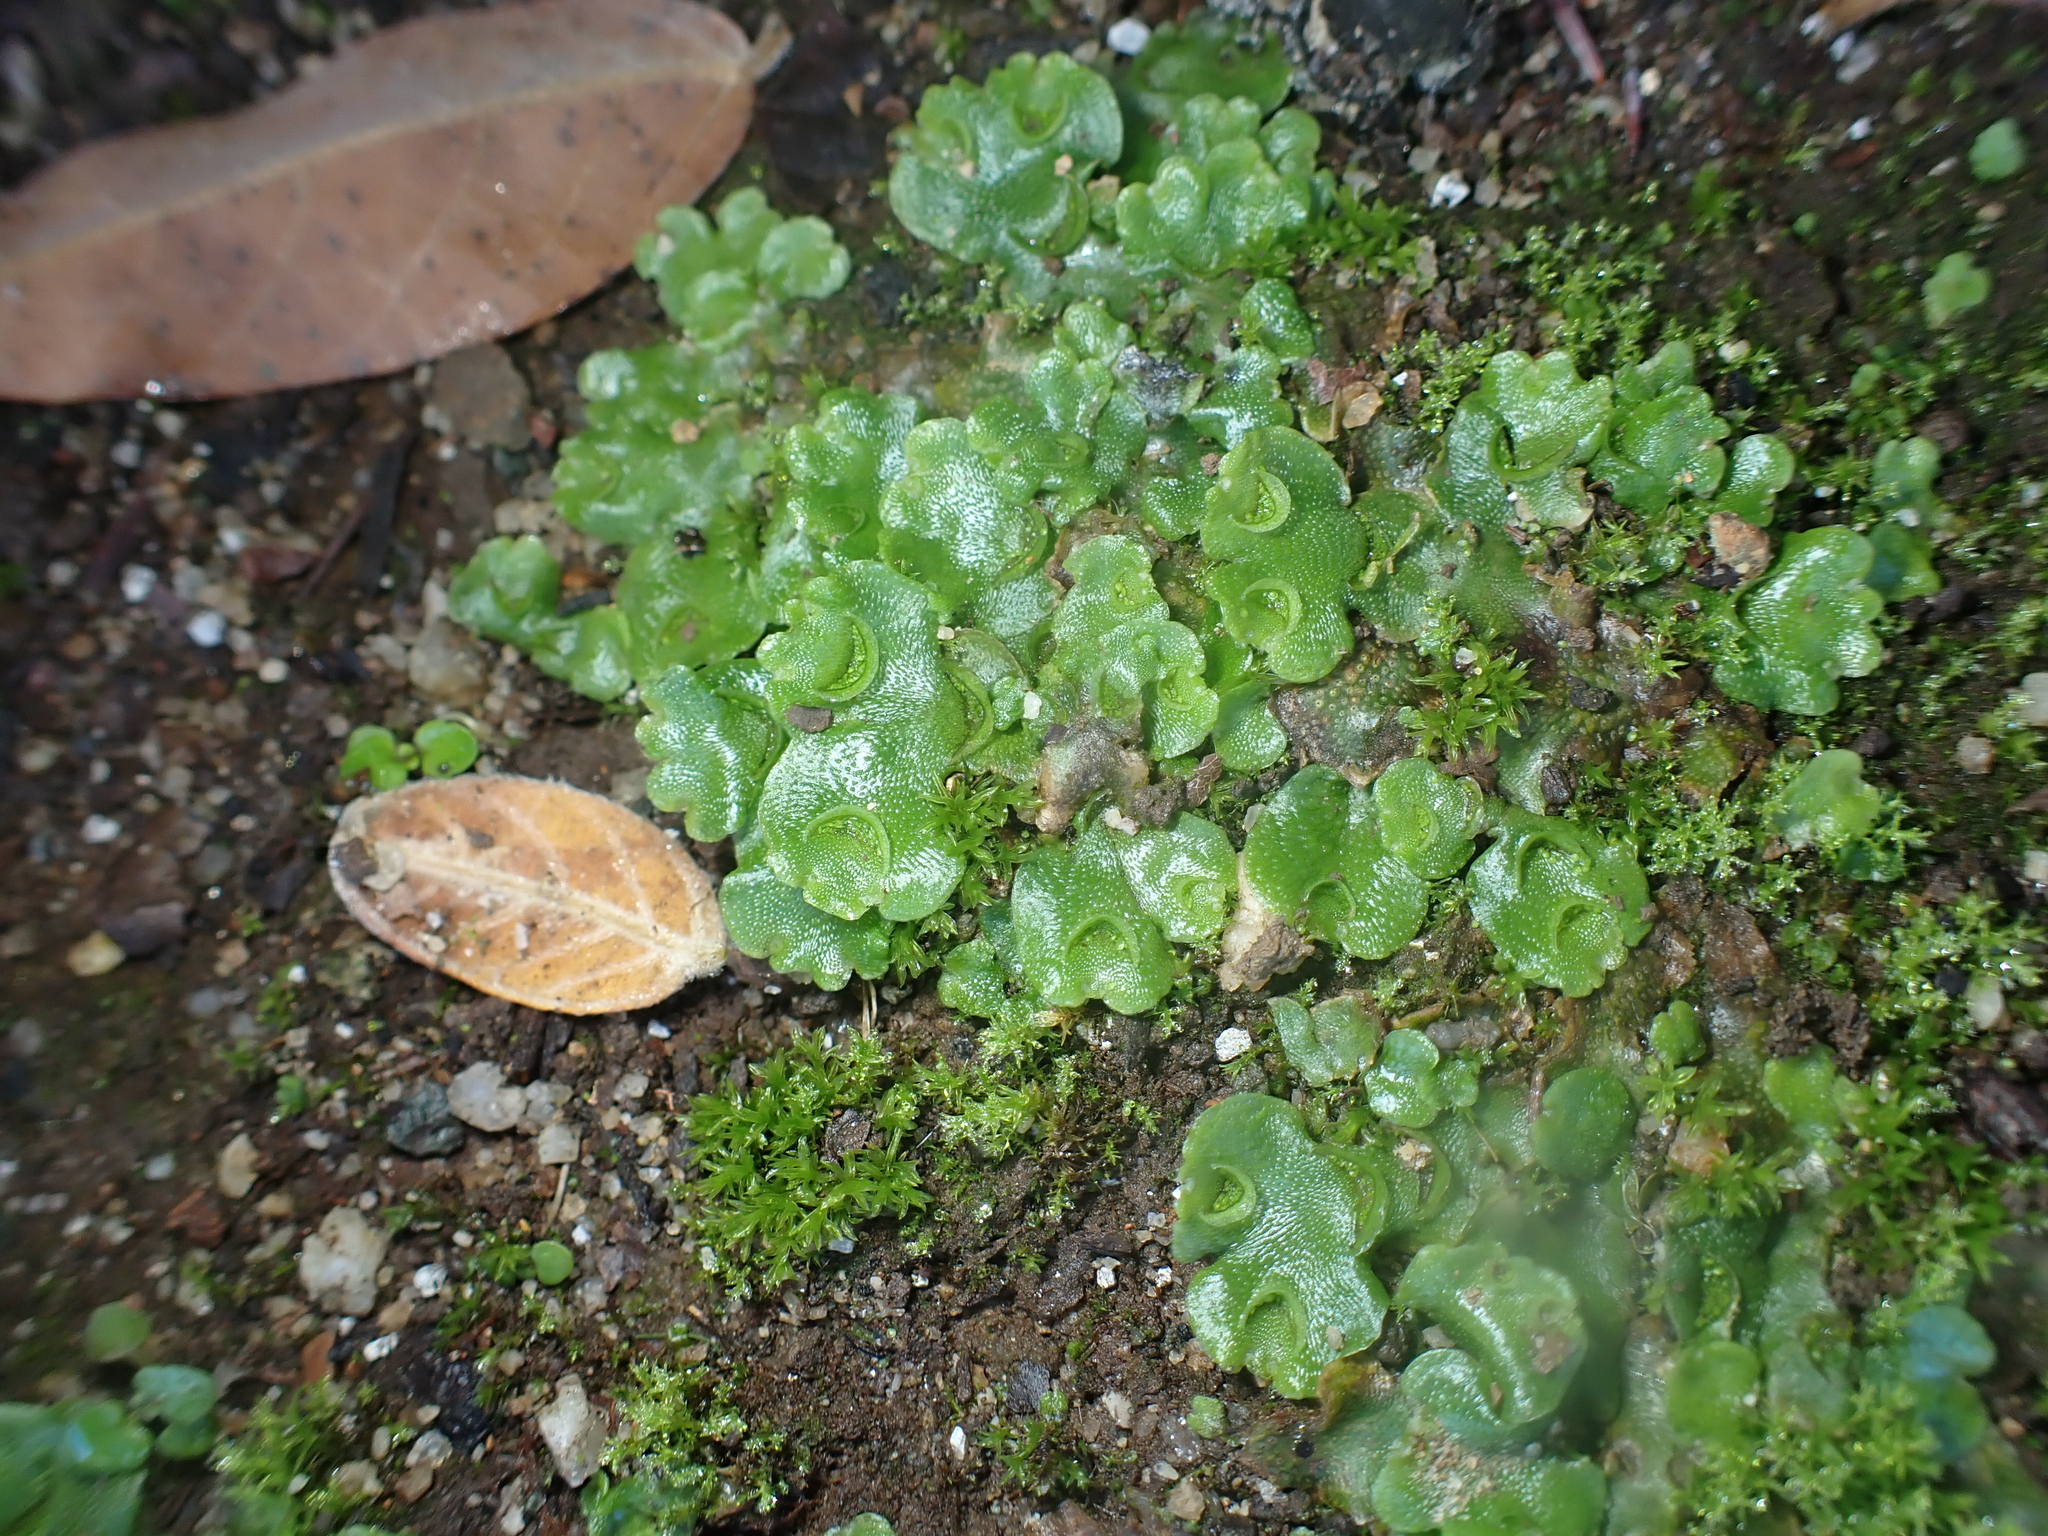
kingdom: Plantae
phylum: Marchantiophyta
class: Marchantiopsida
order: Lunulariales
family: Lunulariaceae
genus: Lunularia
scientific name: Lunularia cruciata
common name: Crescent-cup liverwort
